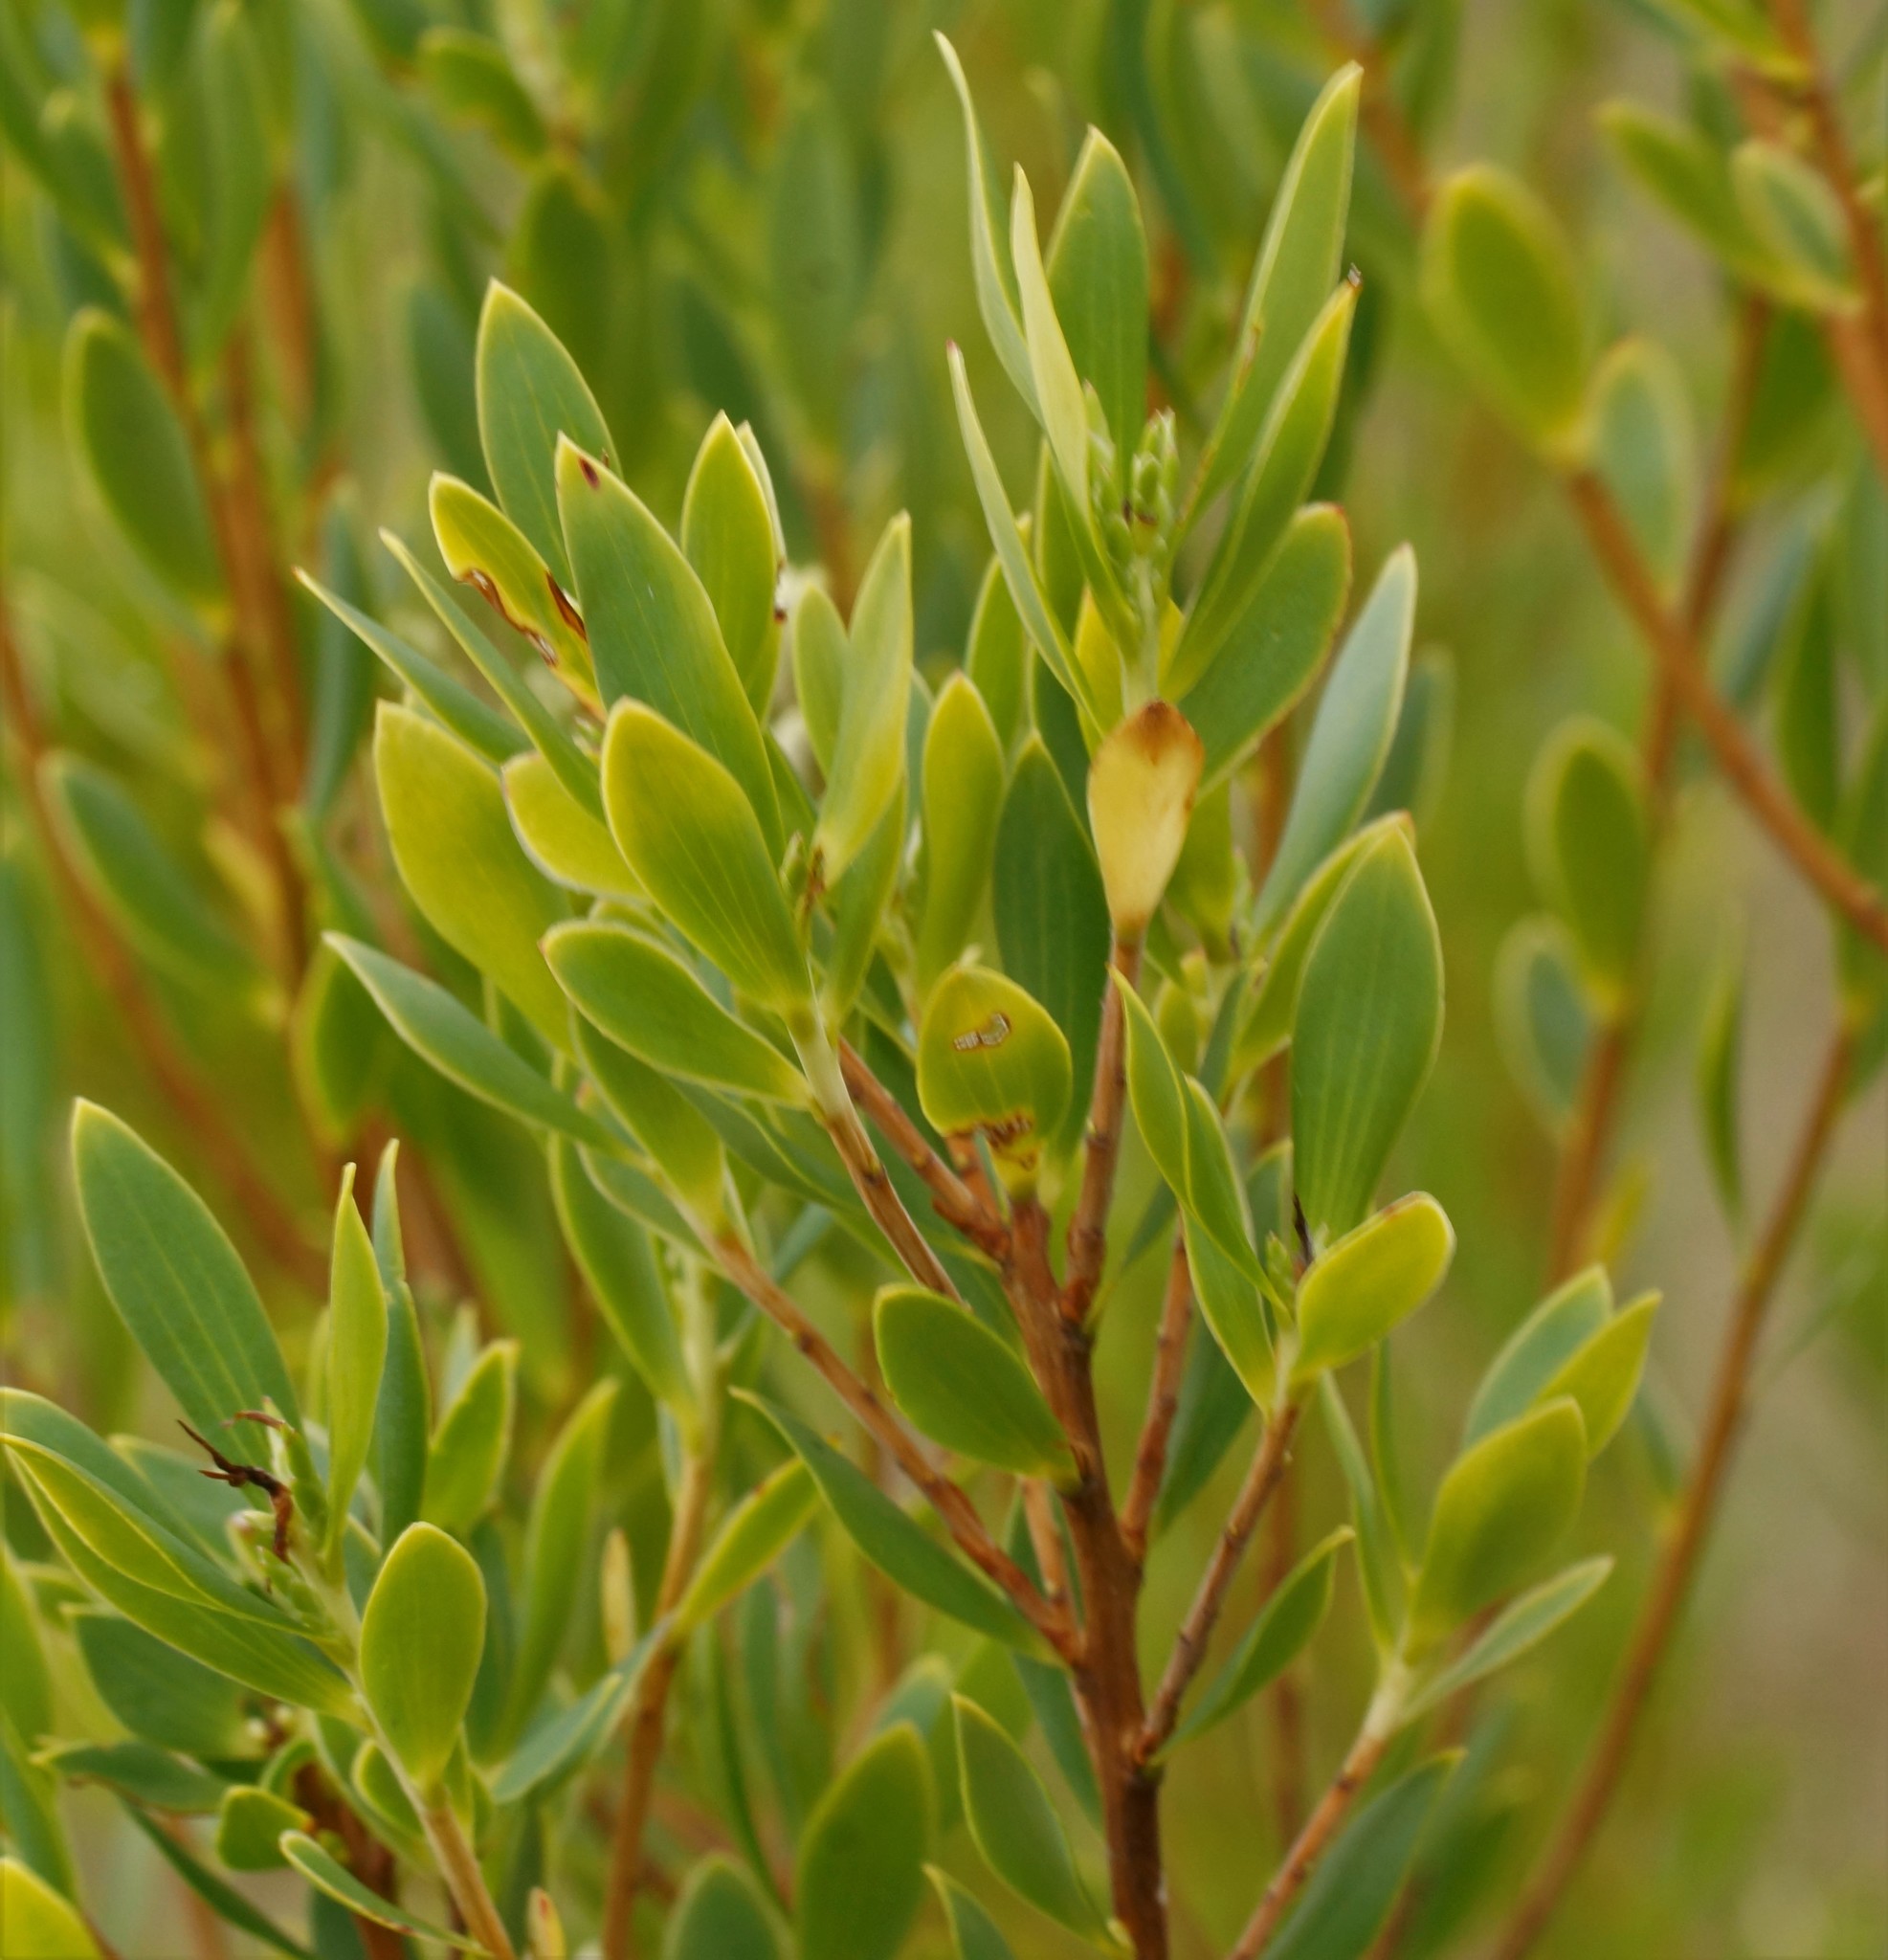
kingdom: Plantae
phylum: Tracheophyta
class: Magnoliopsida
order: Ericales
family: Ericaceae
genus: Leptecophylla
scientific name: Leptecophylla parvifolia
